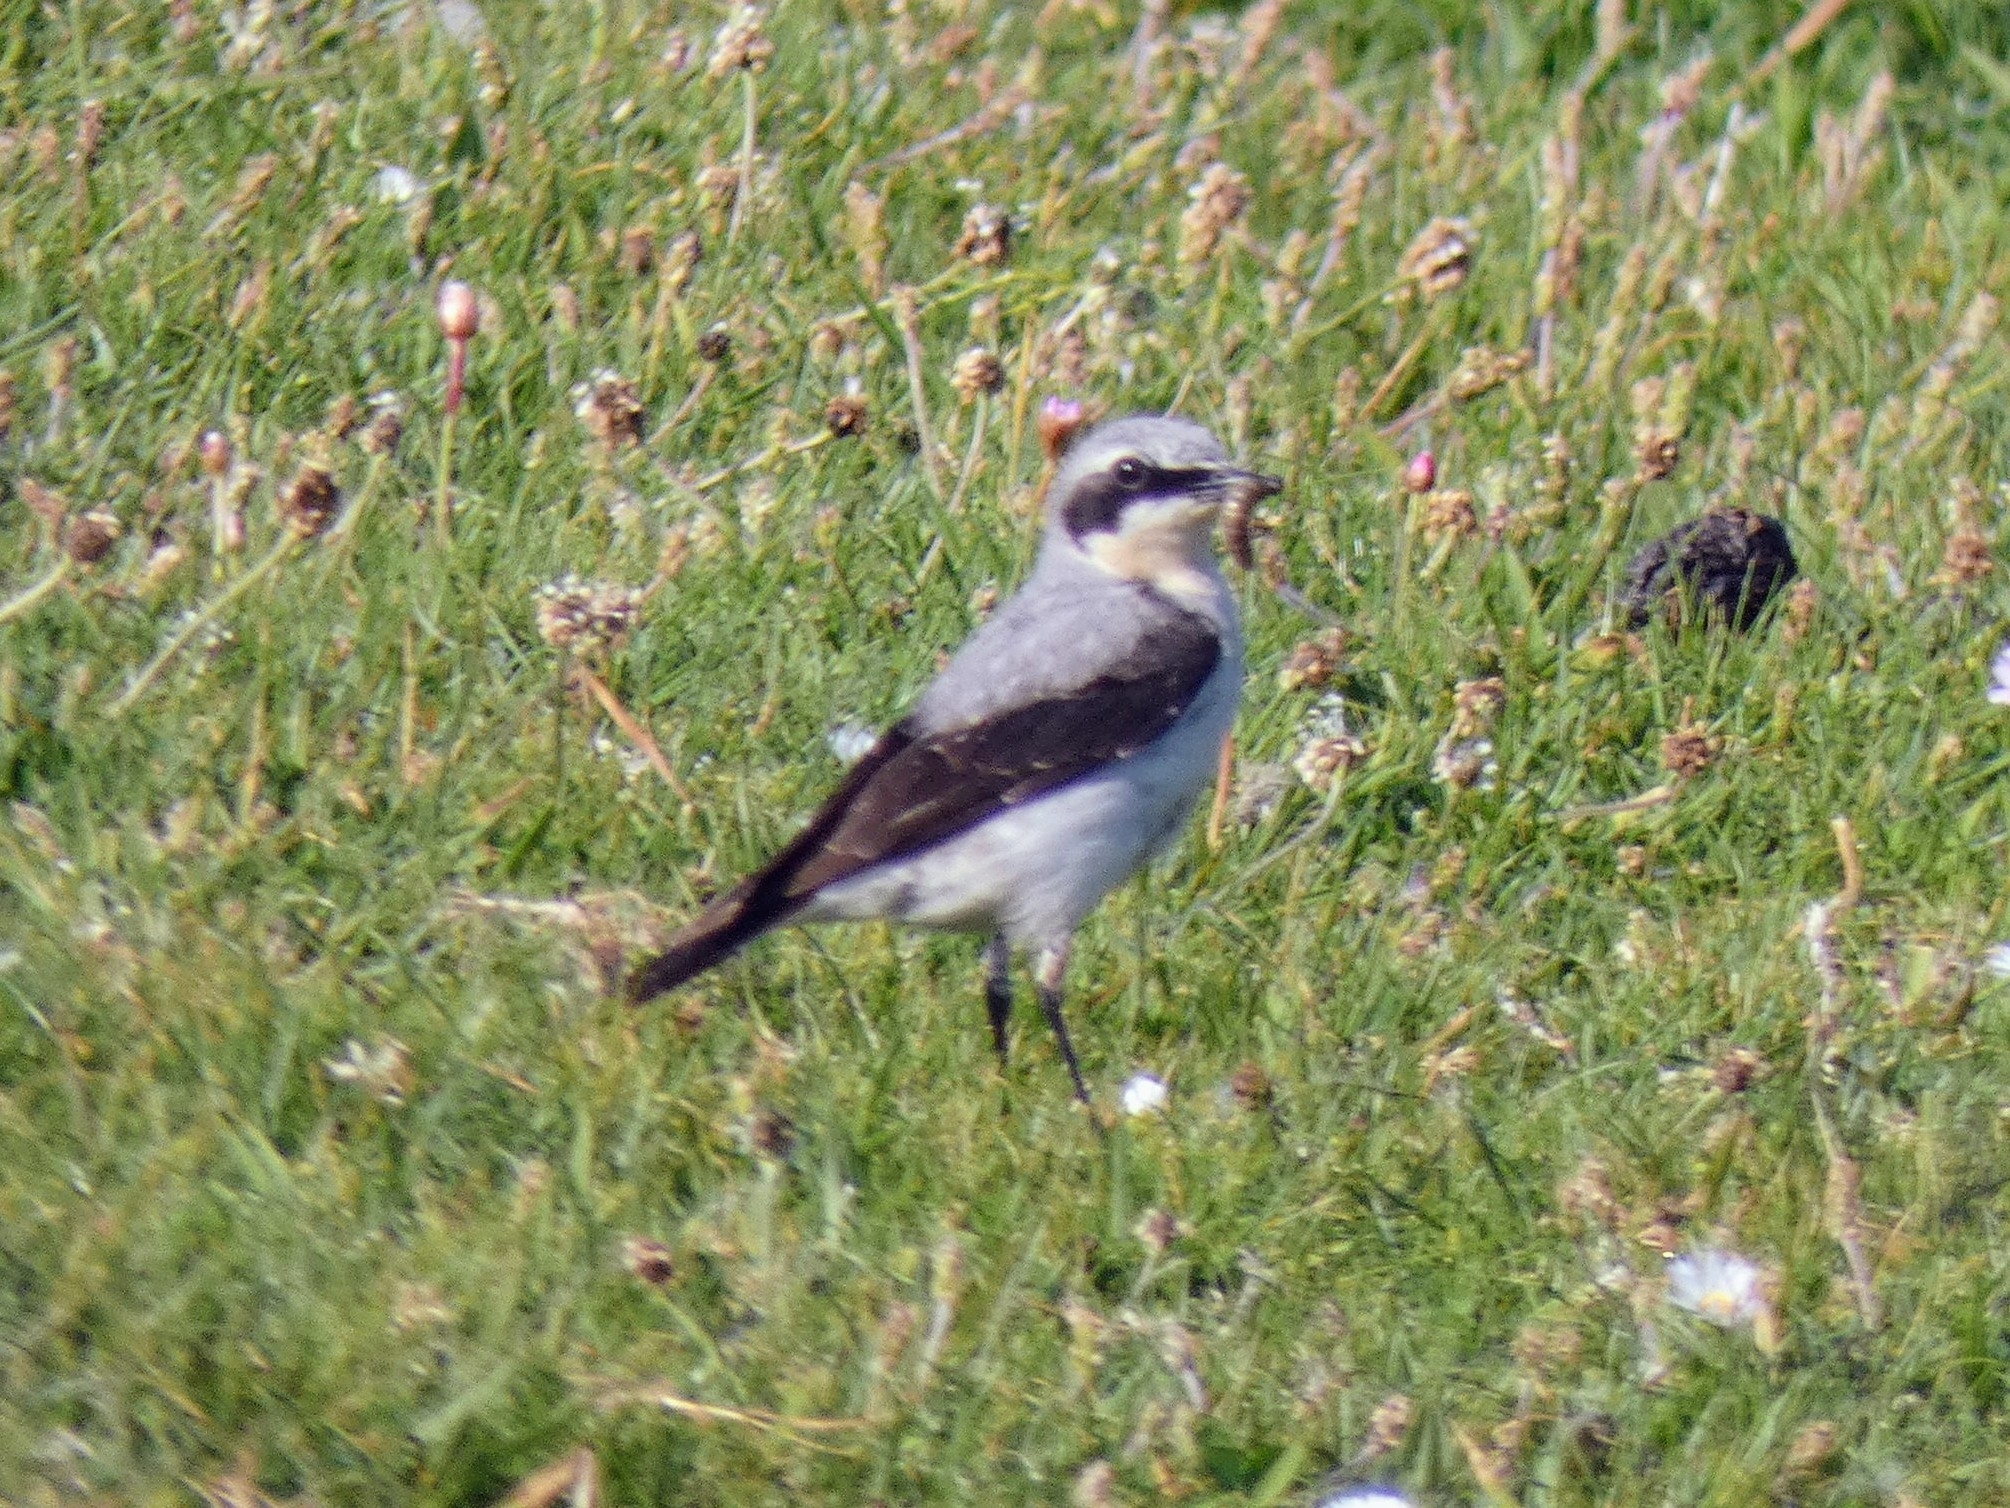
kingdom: Animalia
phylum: Chordata
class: Aves
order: Passeriformes
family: Muscicapidae
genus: Oenanthe
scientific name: Oenanthe oenanthe
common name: Northern wheatear
